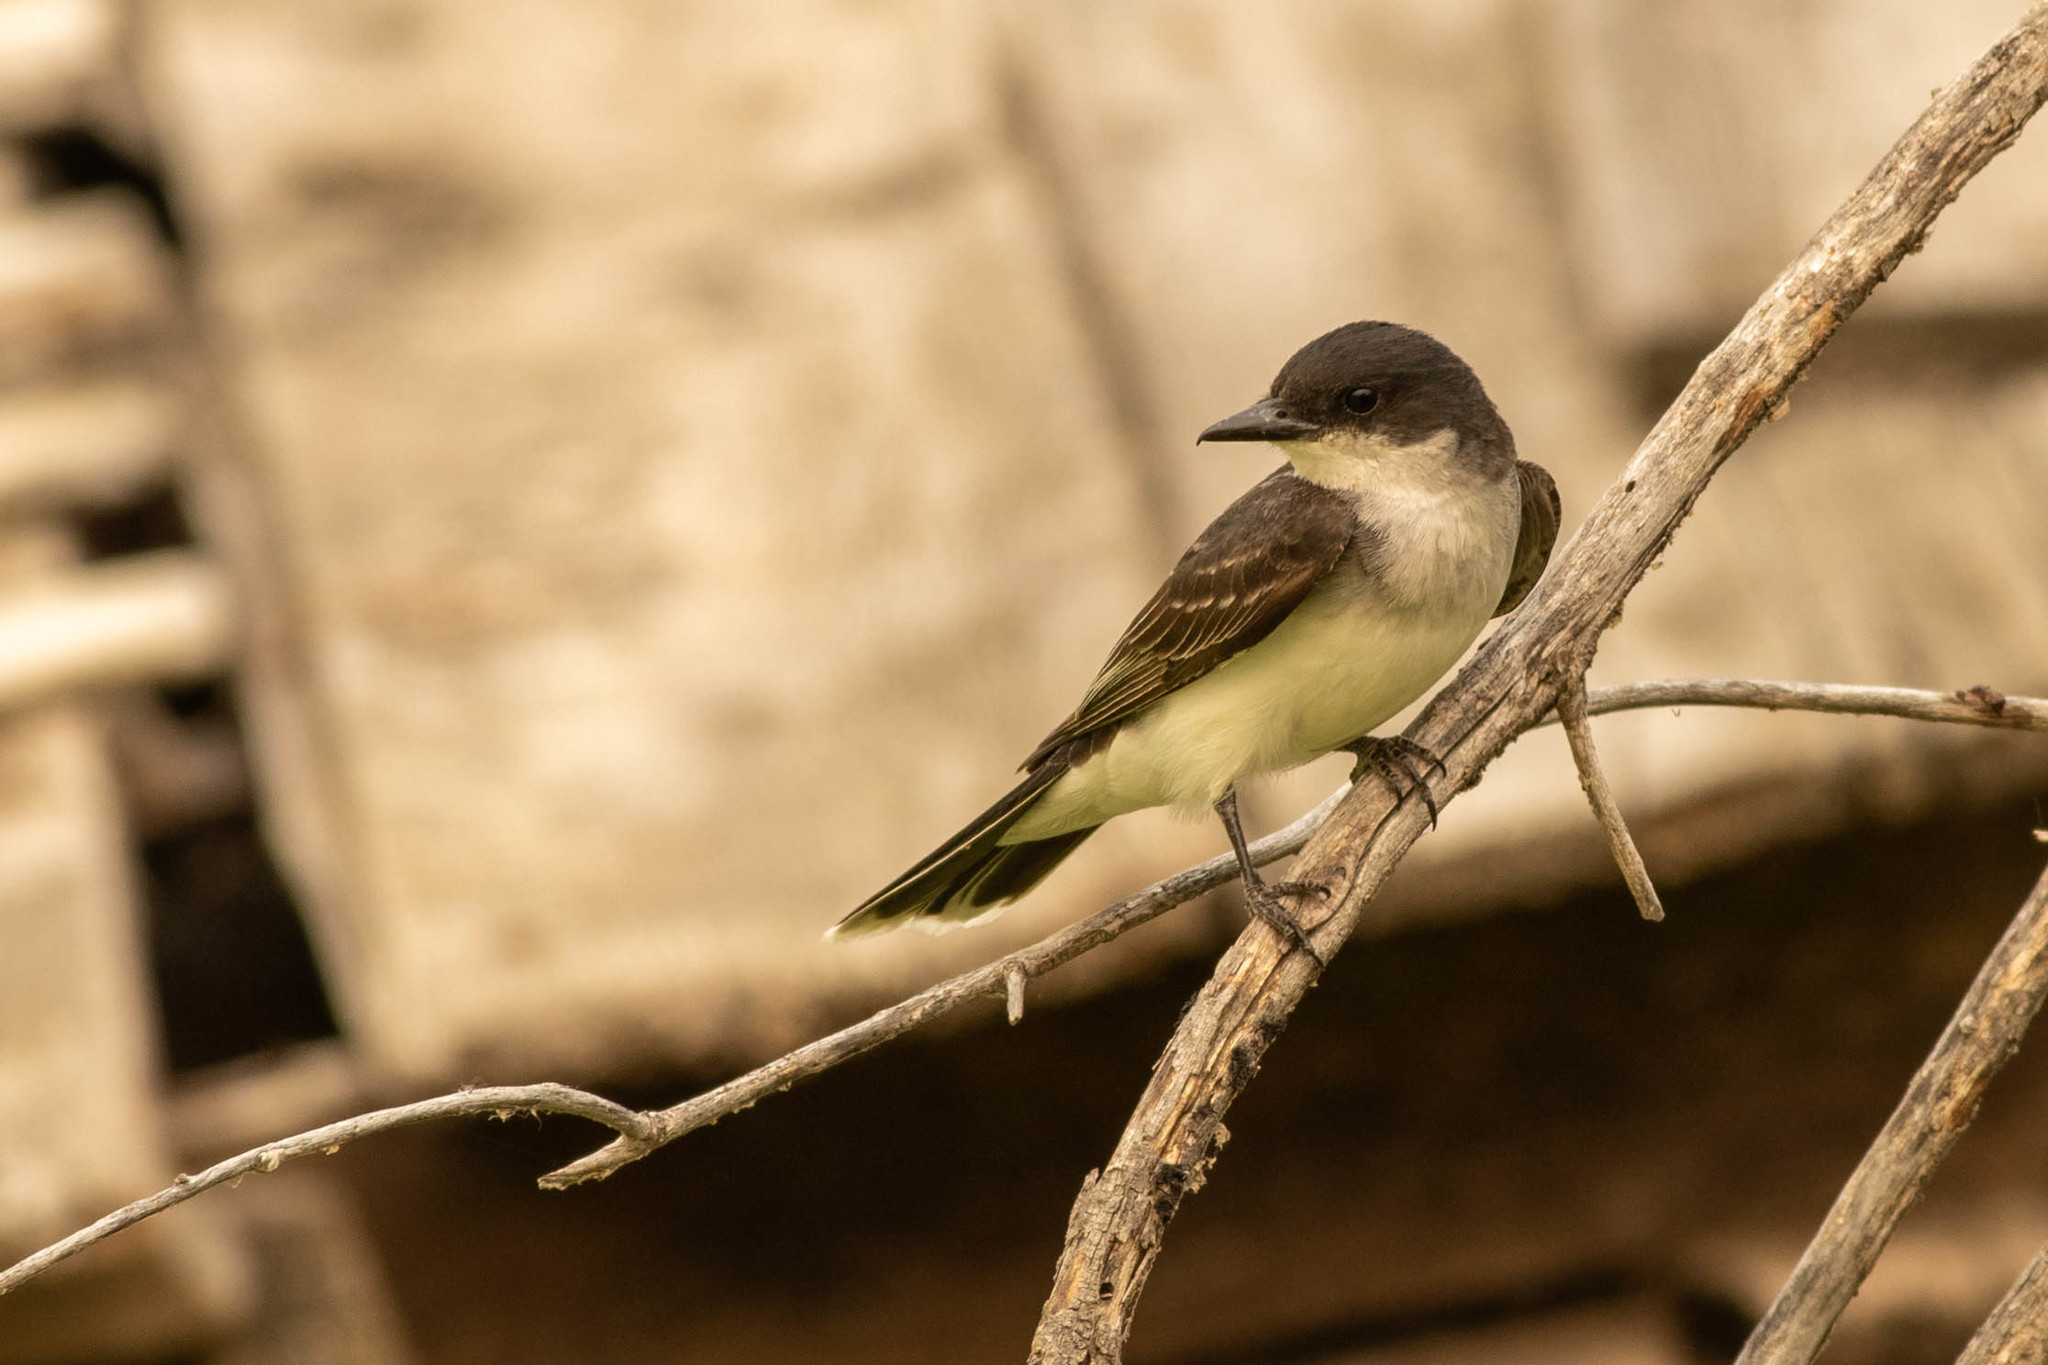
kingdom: Animalia
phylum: Chordata
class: Aves
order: Passeriformes
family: Tyrannidae
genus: Tyrannus
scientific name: Tyrannus tyrannus
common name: Eastern kingbird
